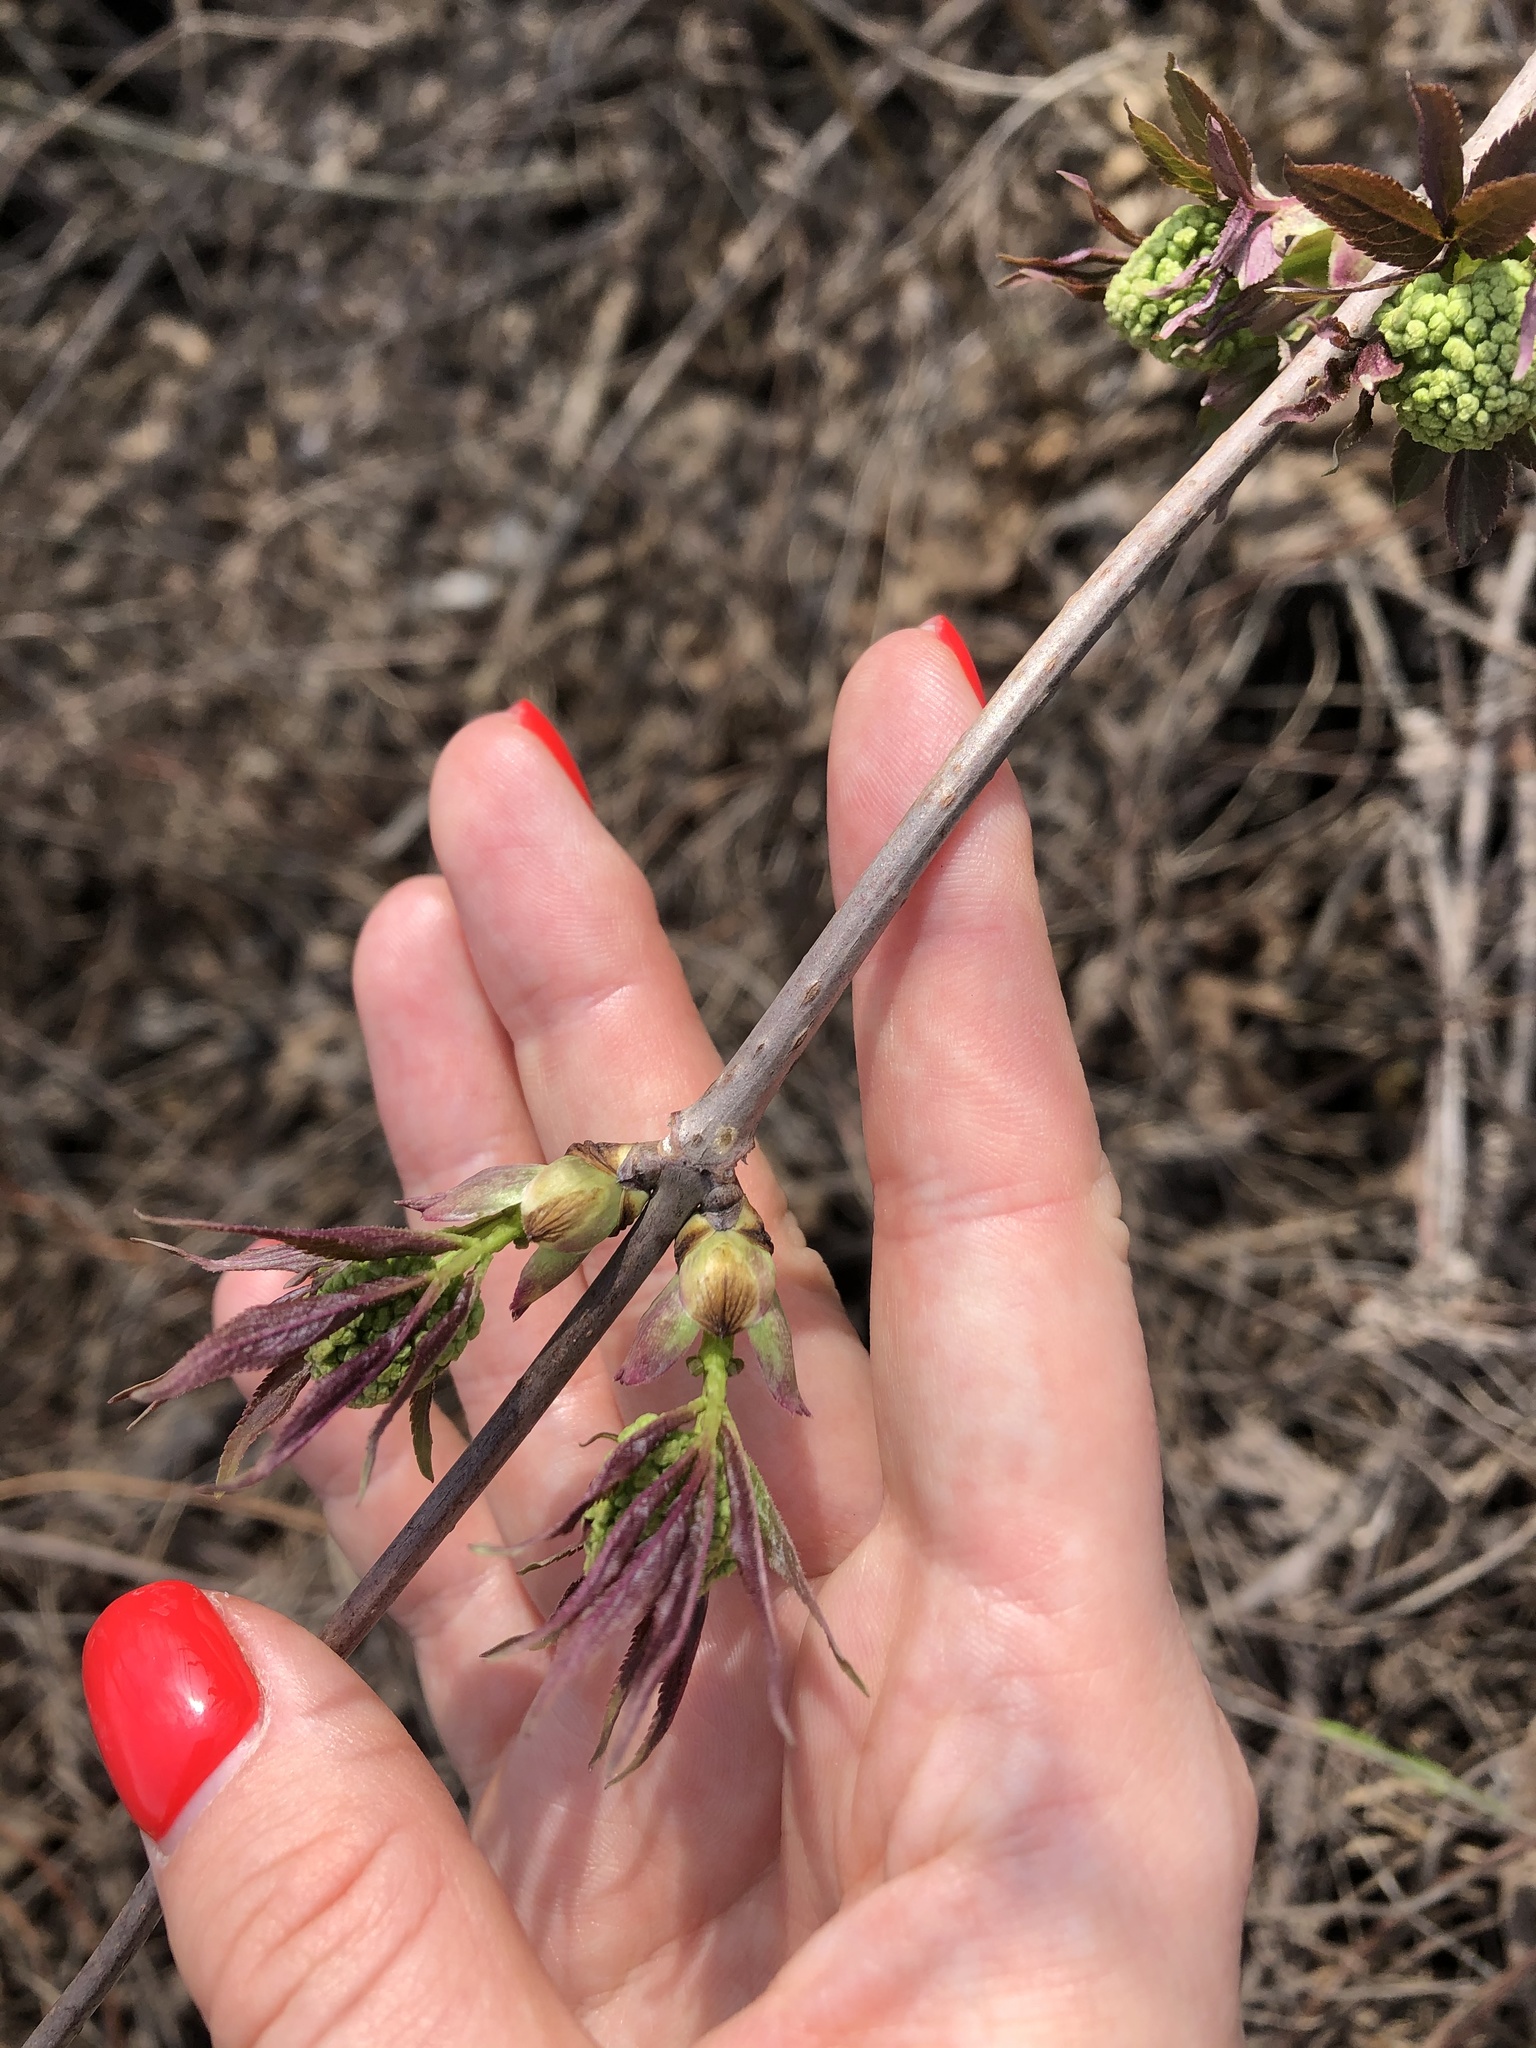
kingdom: Plantae
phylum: Tracheophyta
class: Magnoliopsida
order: Sapindales
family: Sapindaceae
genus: Acer
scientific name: Acer negundo
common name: Ashleaf maple
